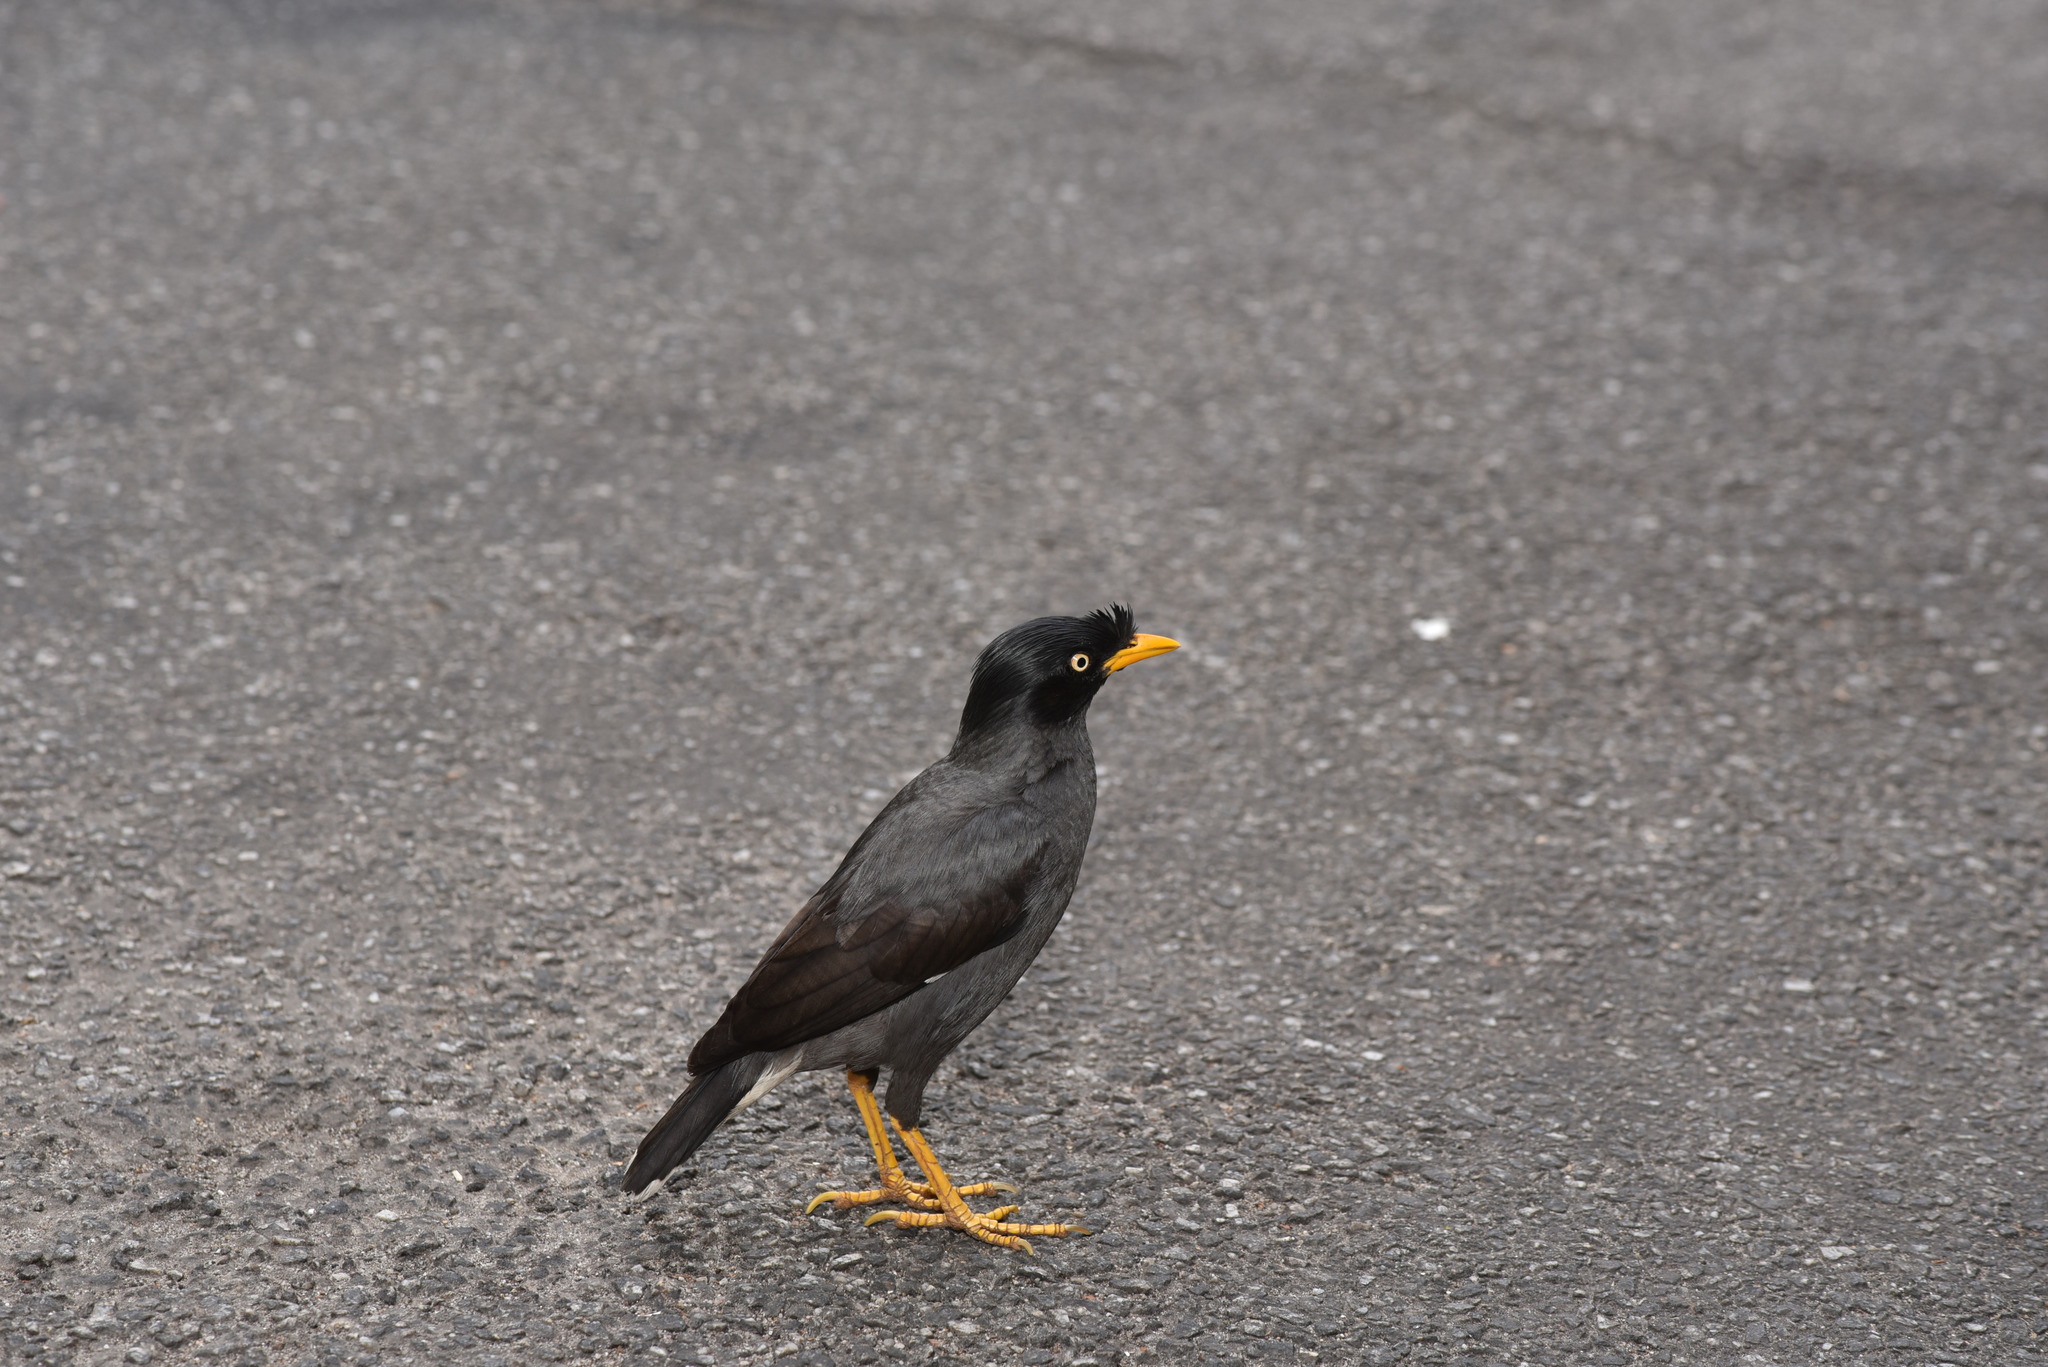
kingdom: Animalia
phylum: Chordata
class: Aves
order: Passeriformes
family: Sturnidae
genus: Acridotheres
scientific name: Acridotheres javanicus
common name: Javan myna
